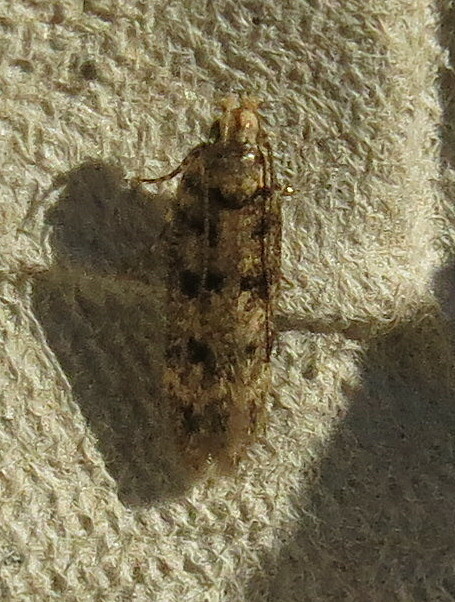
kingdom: Animalia
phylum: Arthropoda
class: Insecta
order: Lepidoptera
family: Gelechiidae
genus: Bryotropha
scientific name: Bryotropha domestica
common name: House groundling
